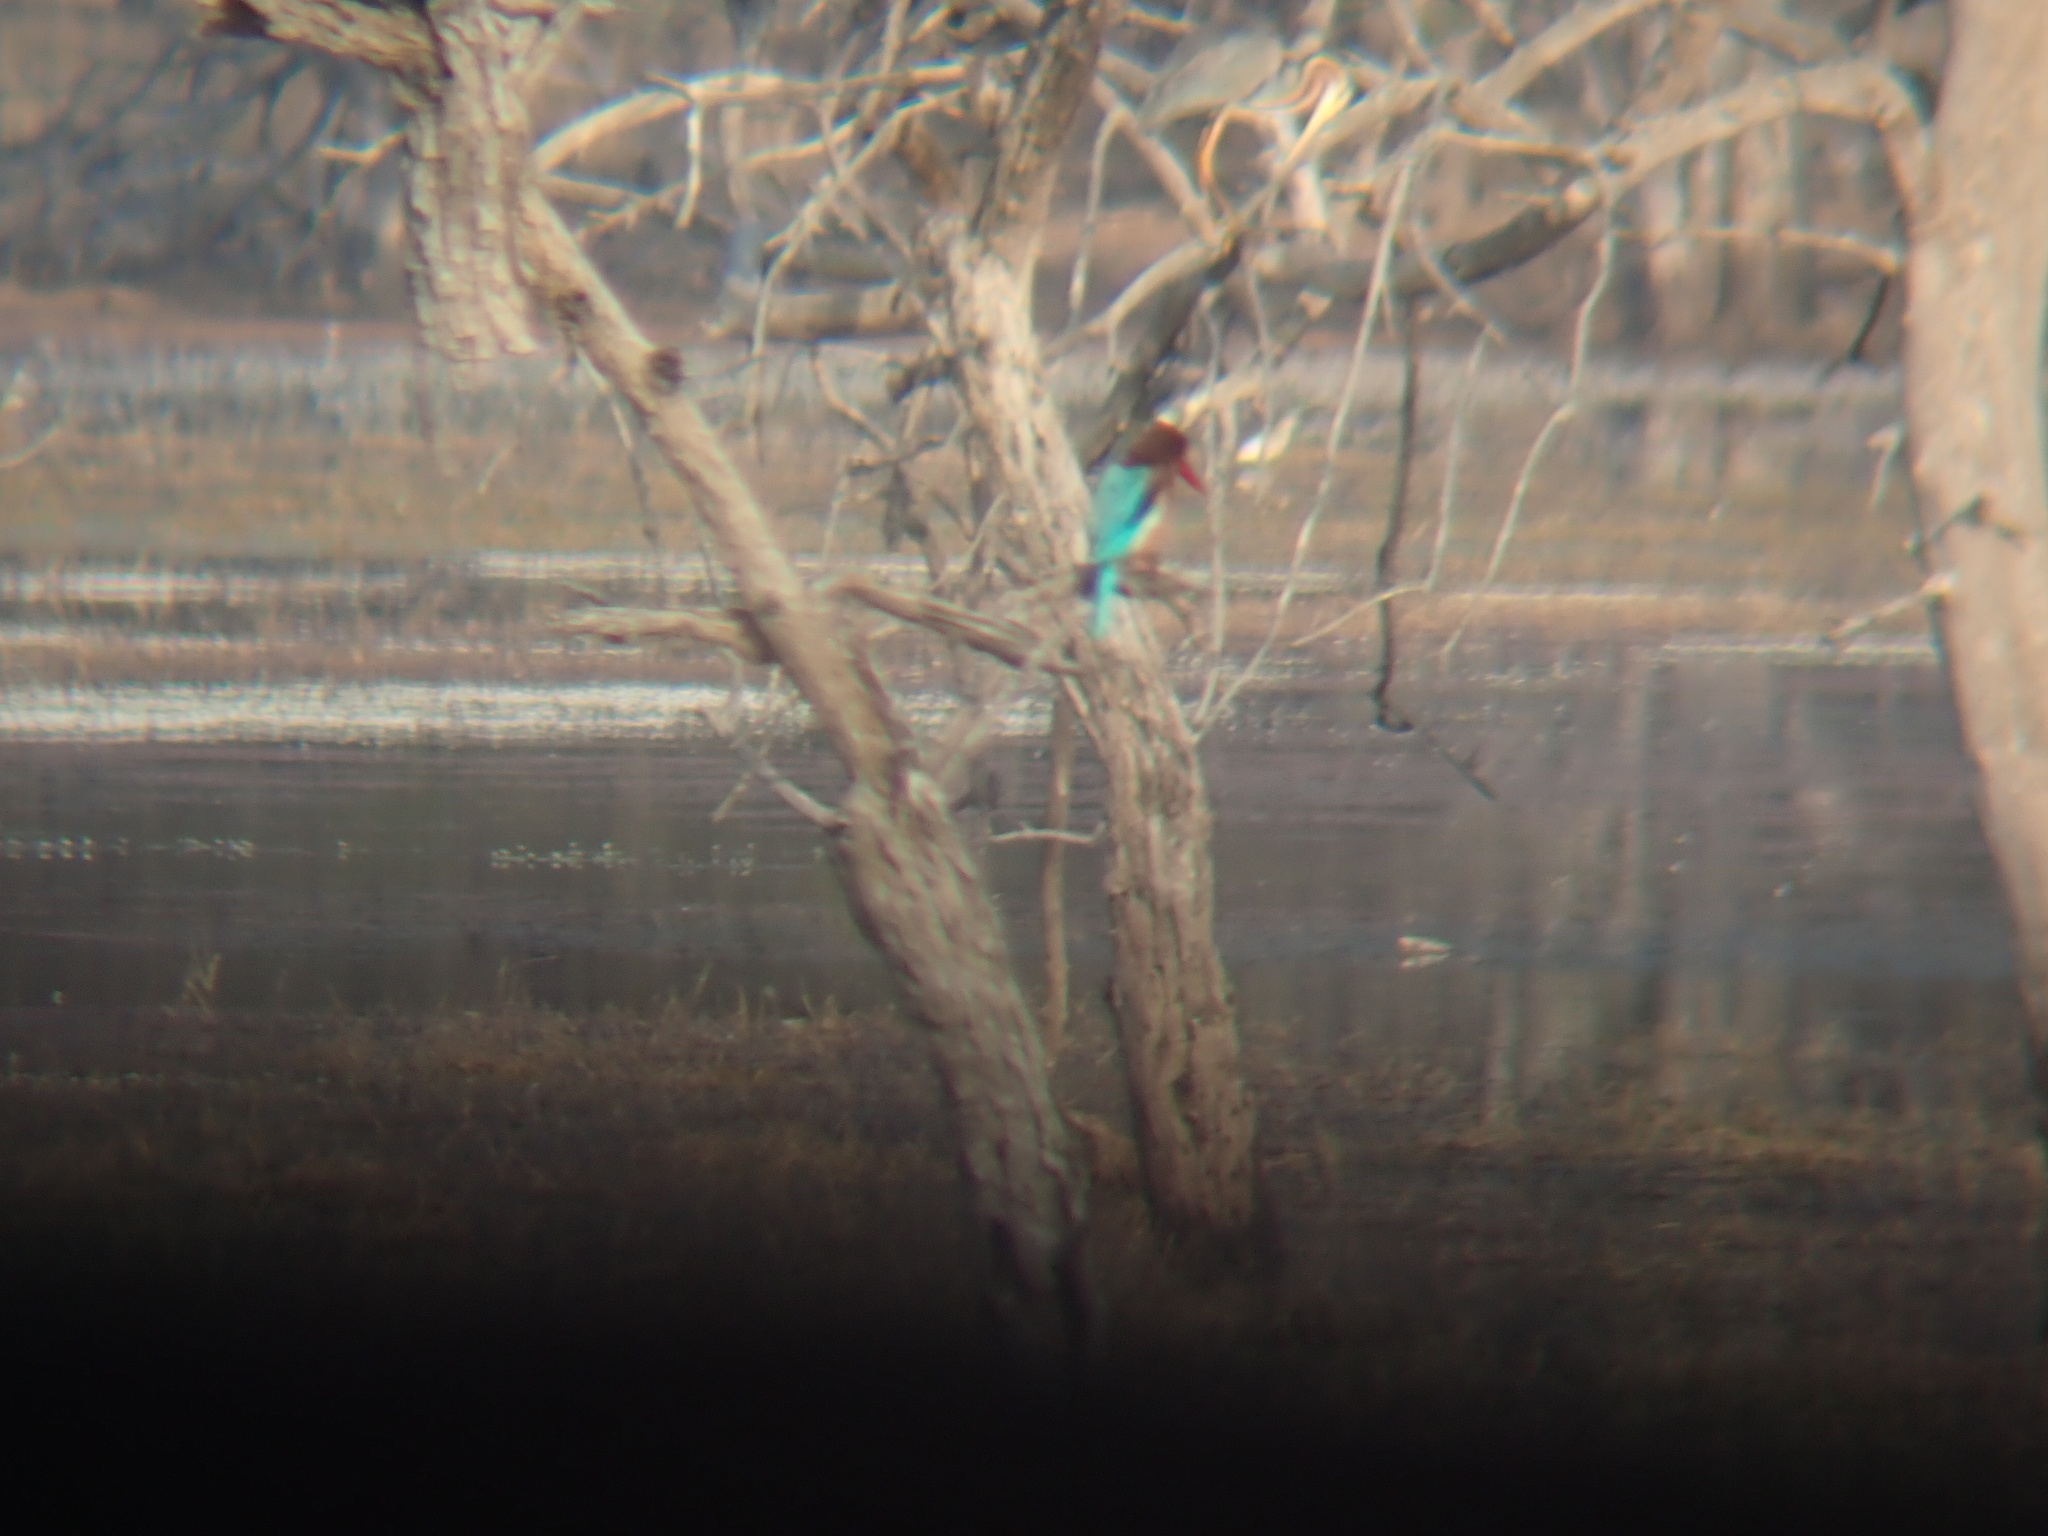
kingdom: Animalia
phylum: Chordata
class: Aves
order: Coraciiformes
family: Alcedinidae
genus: Halcyon
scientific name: Halcyon smyrnensis
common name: White-throated kingfisher
